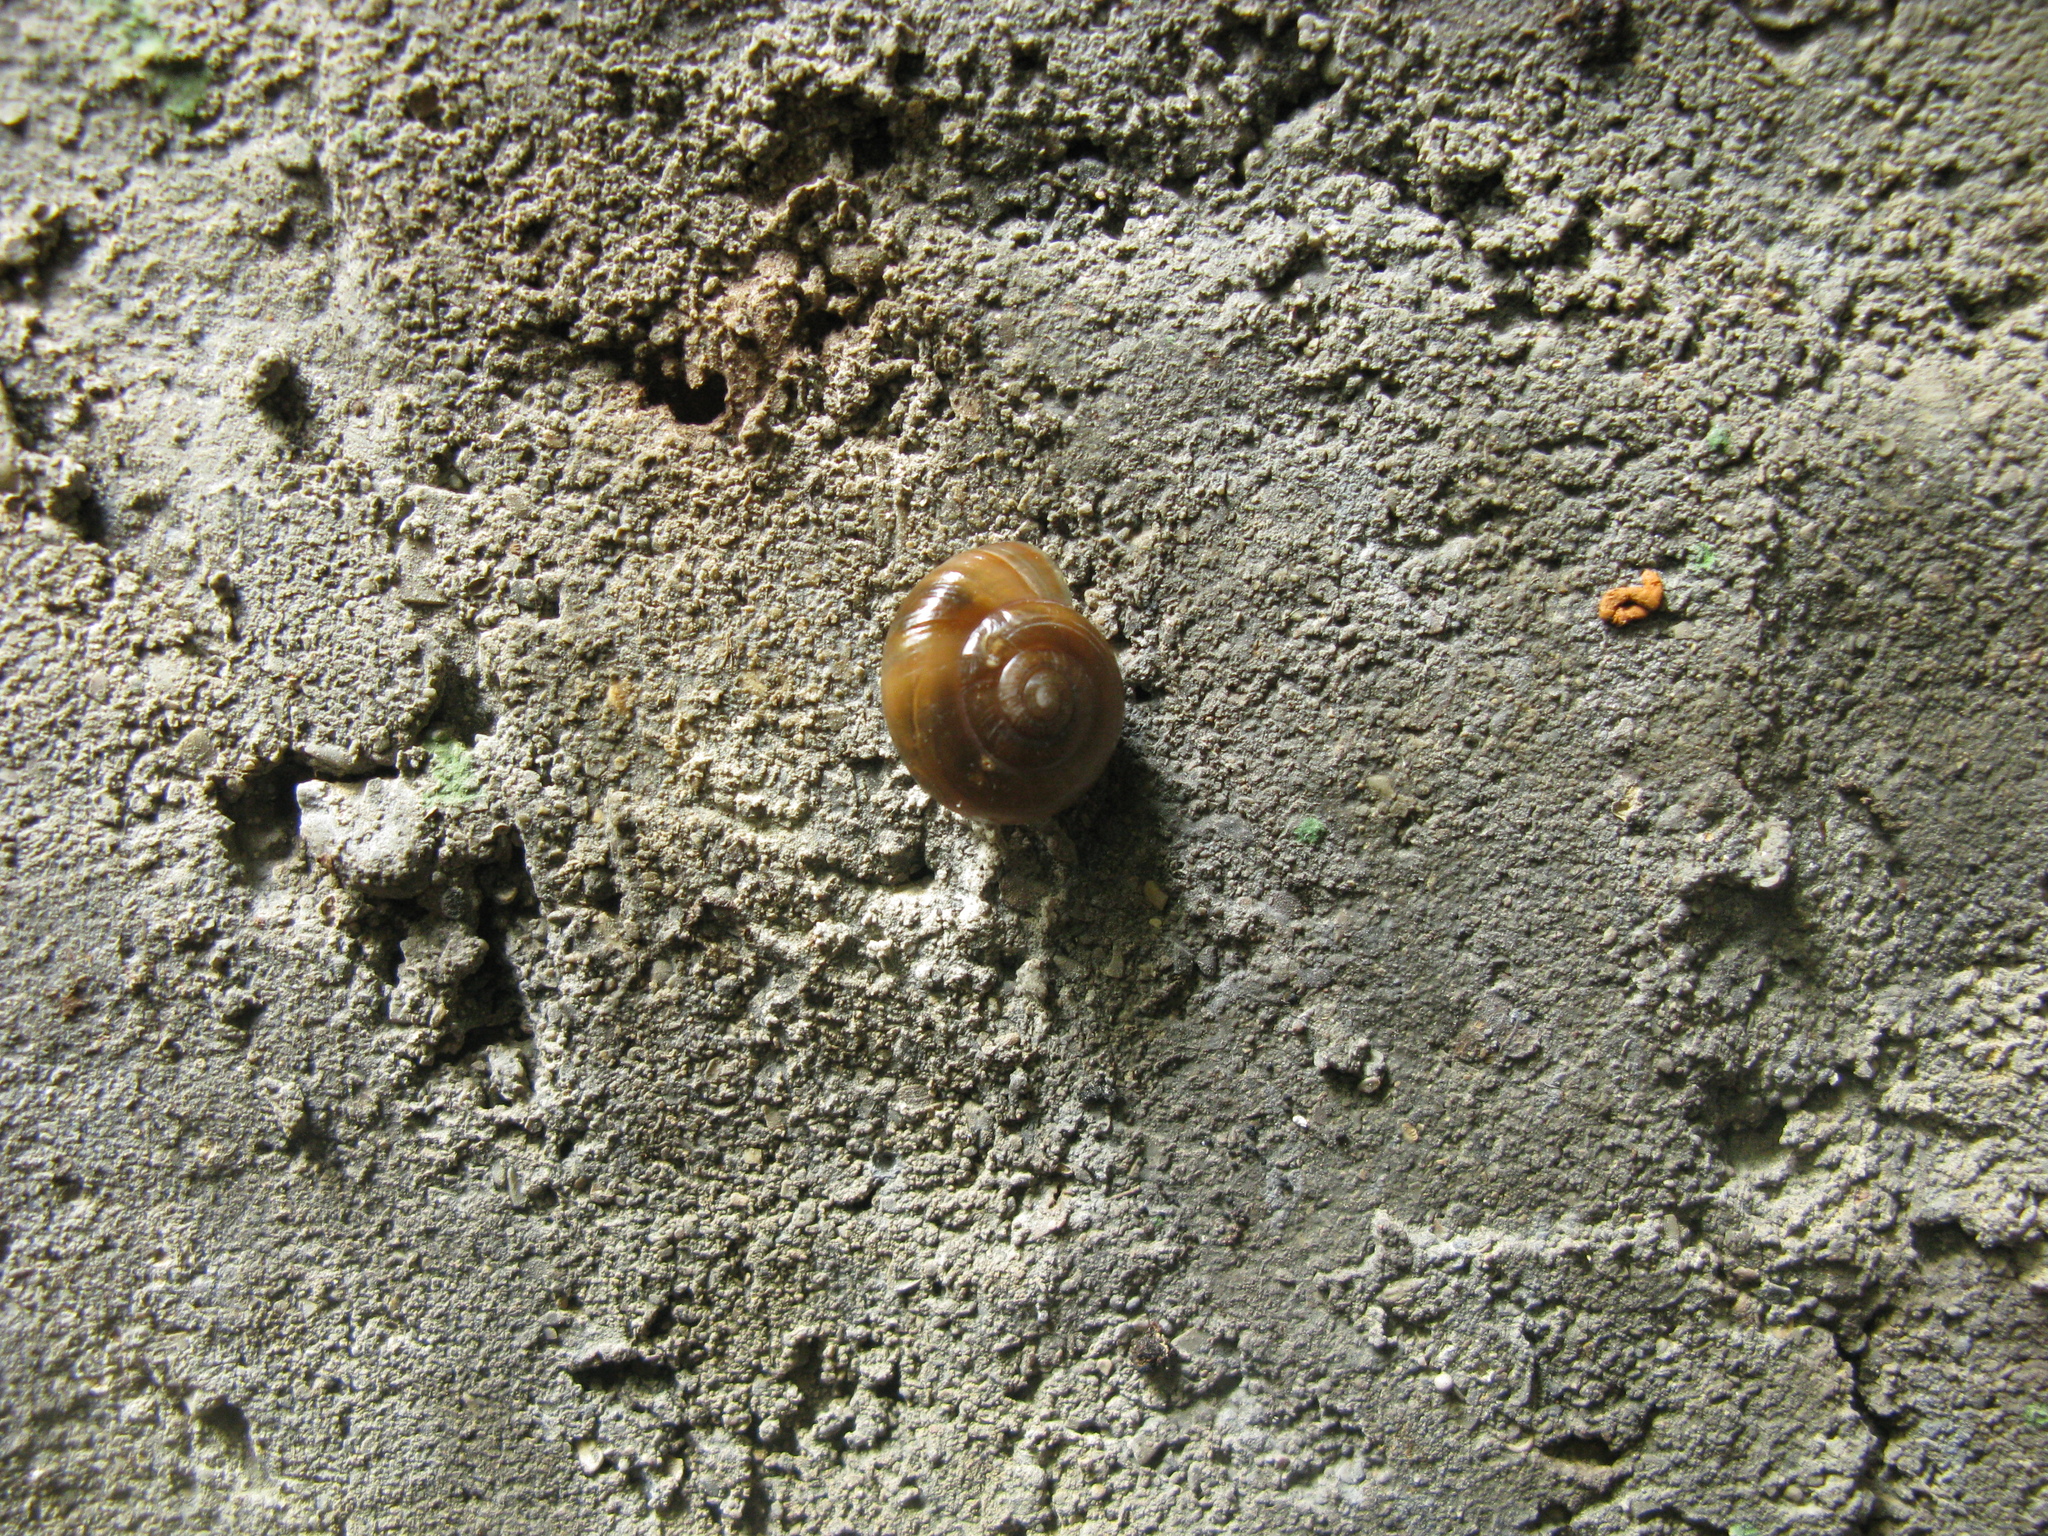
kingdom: Animalia
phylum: Mollusca
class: Gastropoda
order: Stylommatophora
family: Oxychilidae
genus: Schistophallus
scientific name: Schistophallus kobelti
